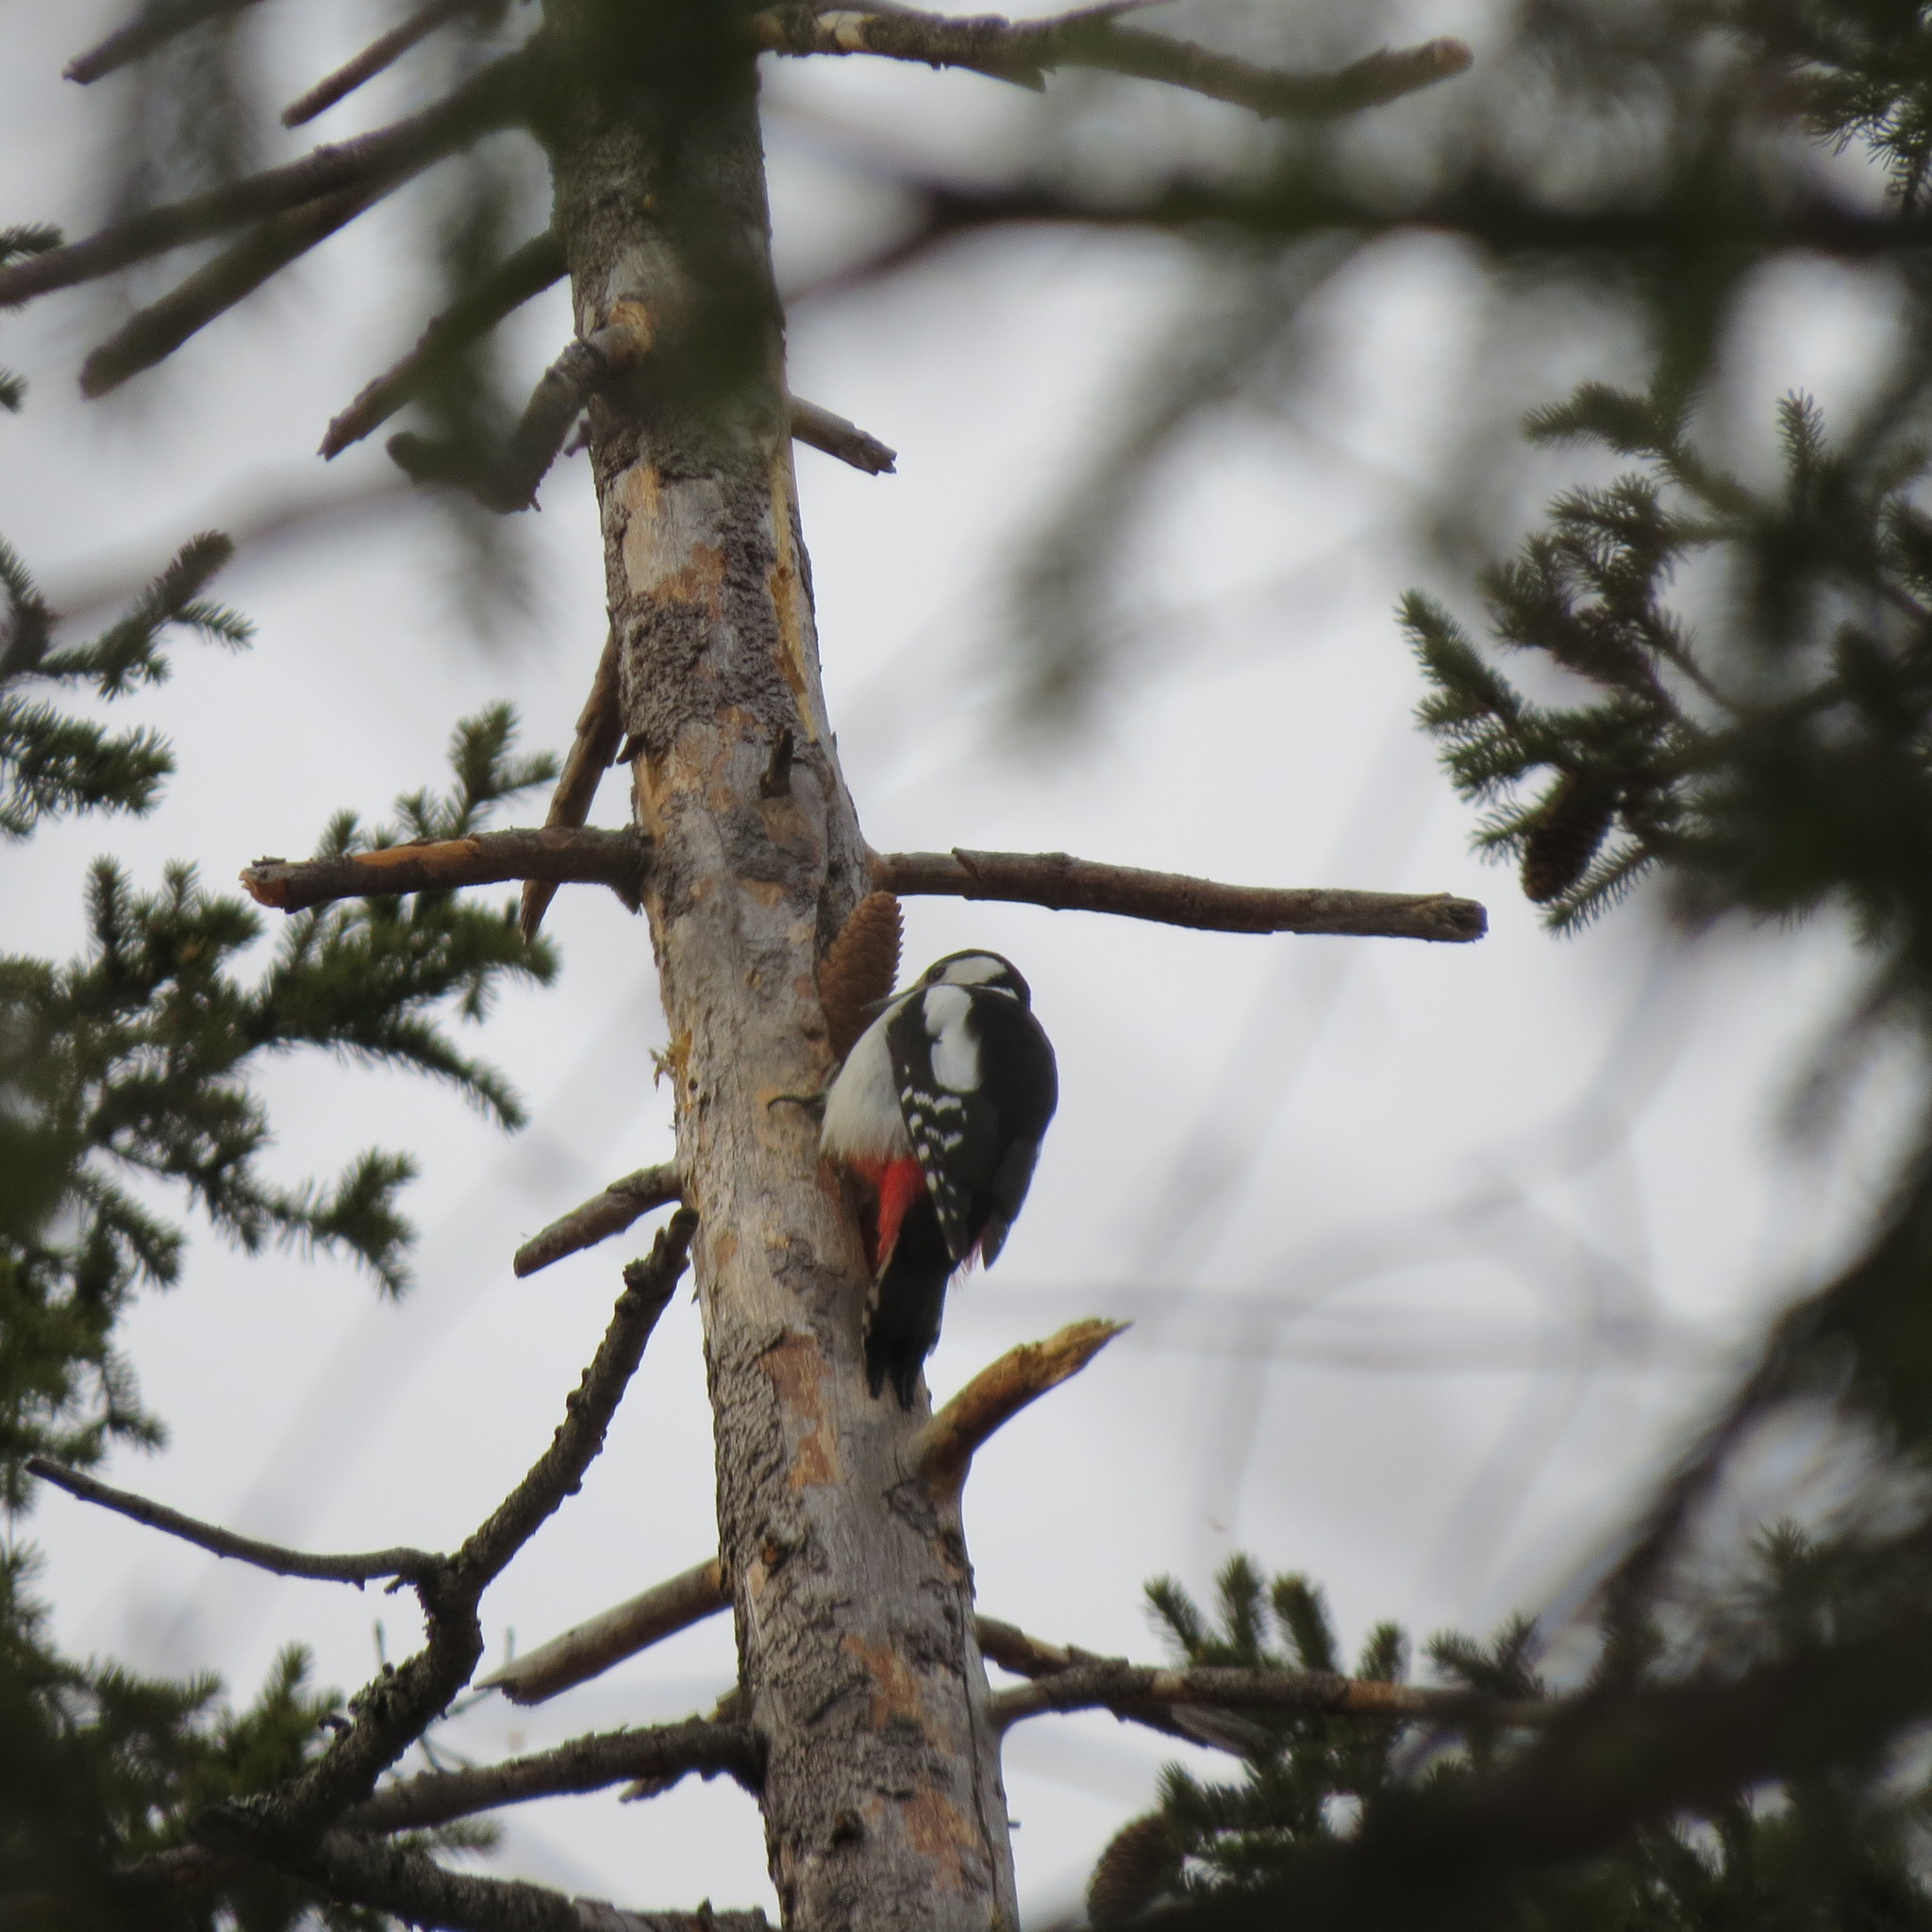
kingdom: Animalia
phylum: Chordata
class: Aves
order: Piciformes
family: Picidae
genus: Dendrocopos
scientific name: Dendrocopos major
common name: Great spotted woodpecker
